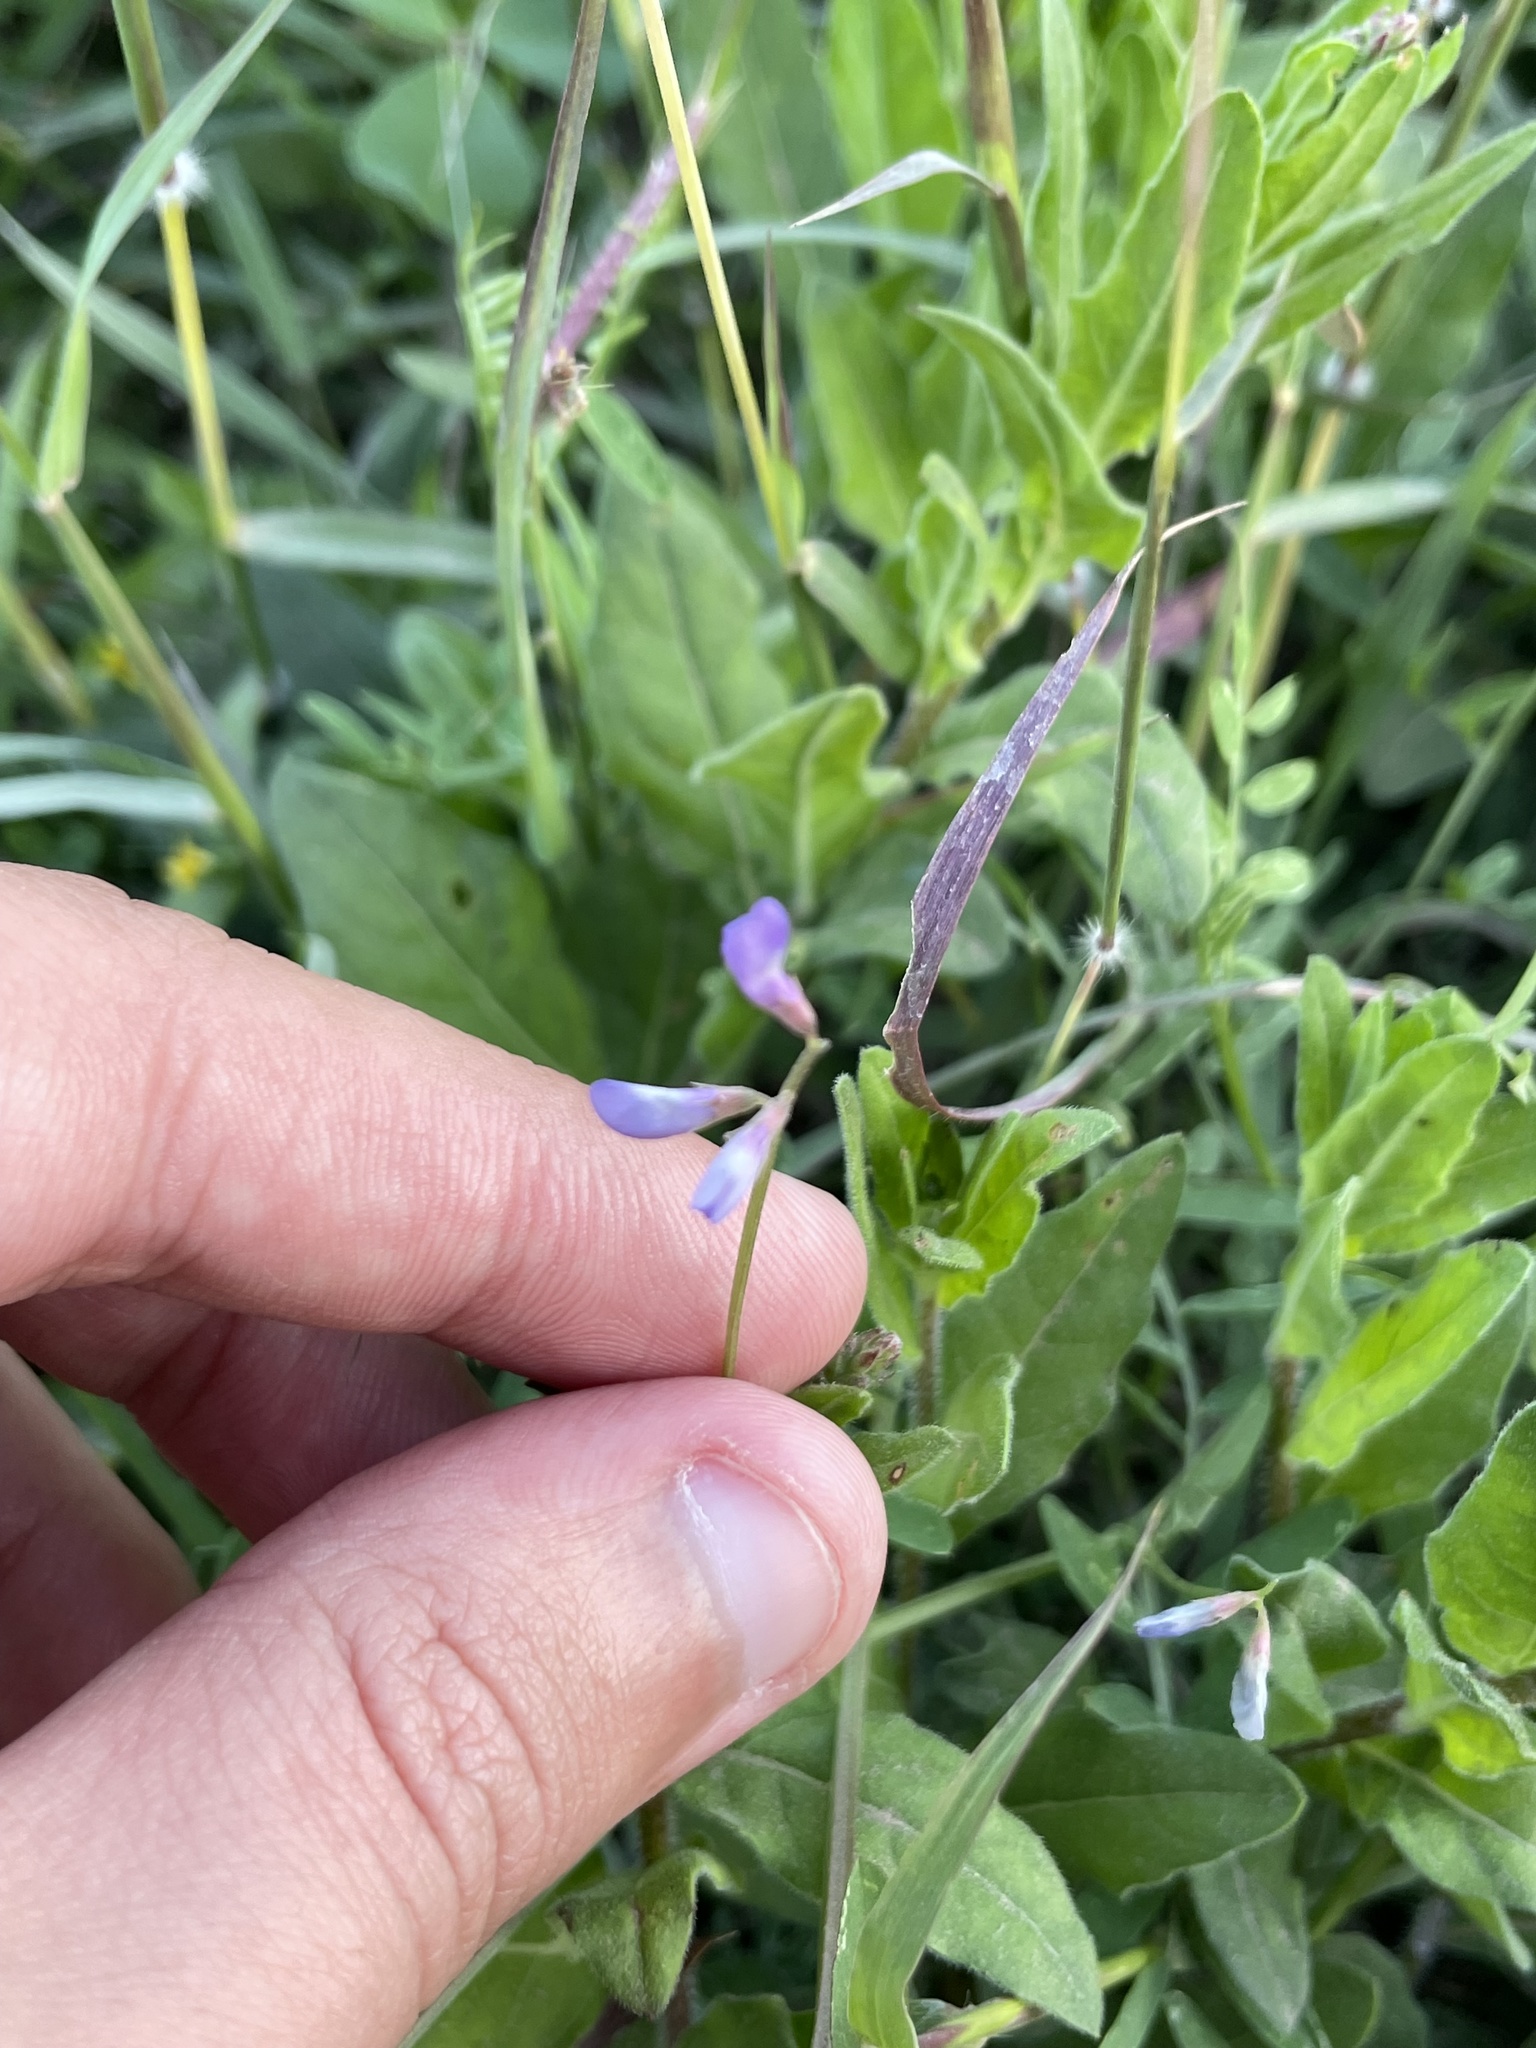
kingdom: Plantae
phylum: Tracheophyta
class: Magnoliopsida
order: Fabales
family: Fabaceae
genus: Vicia
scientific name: Vicia ludoviciana
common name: Louisiana vetch
